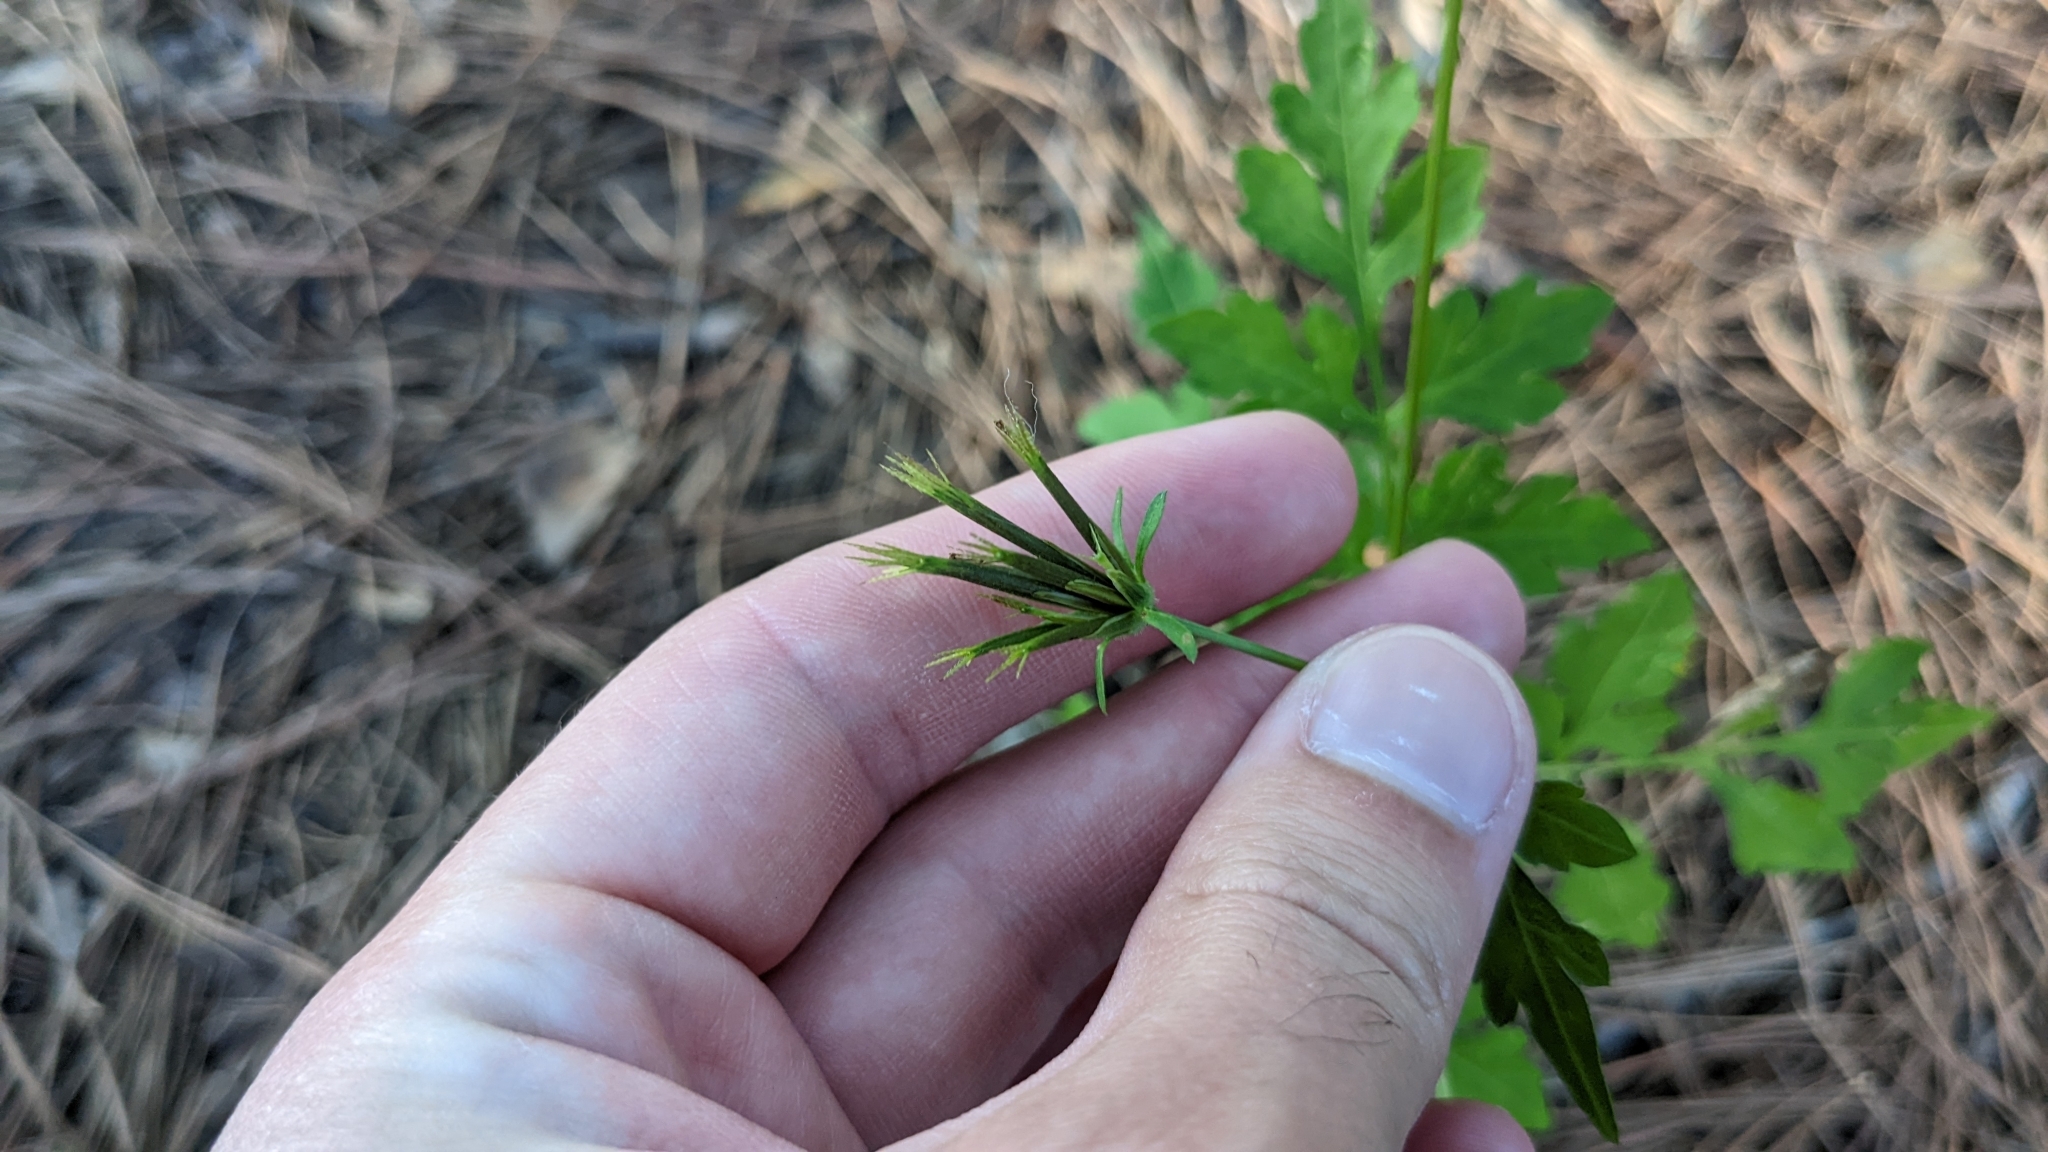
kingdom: Plantae
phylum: Tracheophyta
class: Magnoliopsida
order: Asterales
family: Asteraceae
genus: Bidens
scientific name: Bidens bipinnata
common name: Spanish-needles
